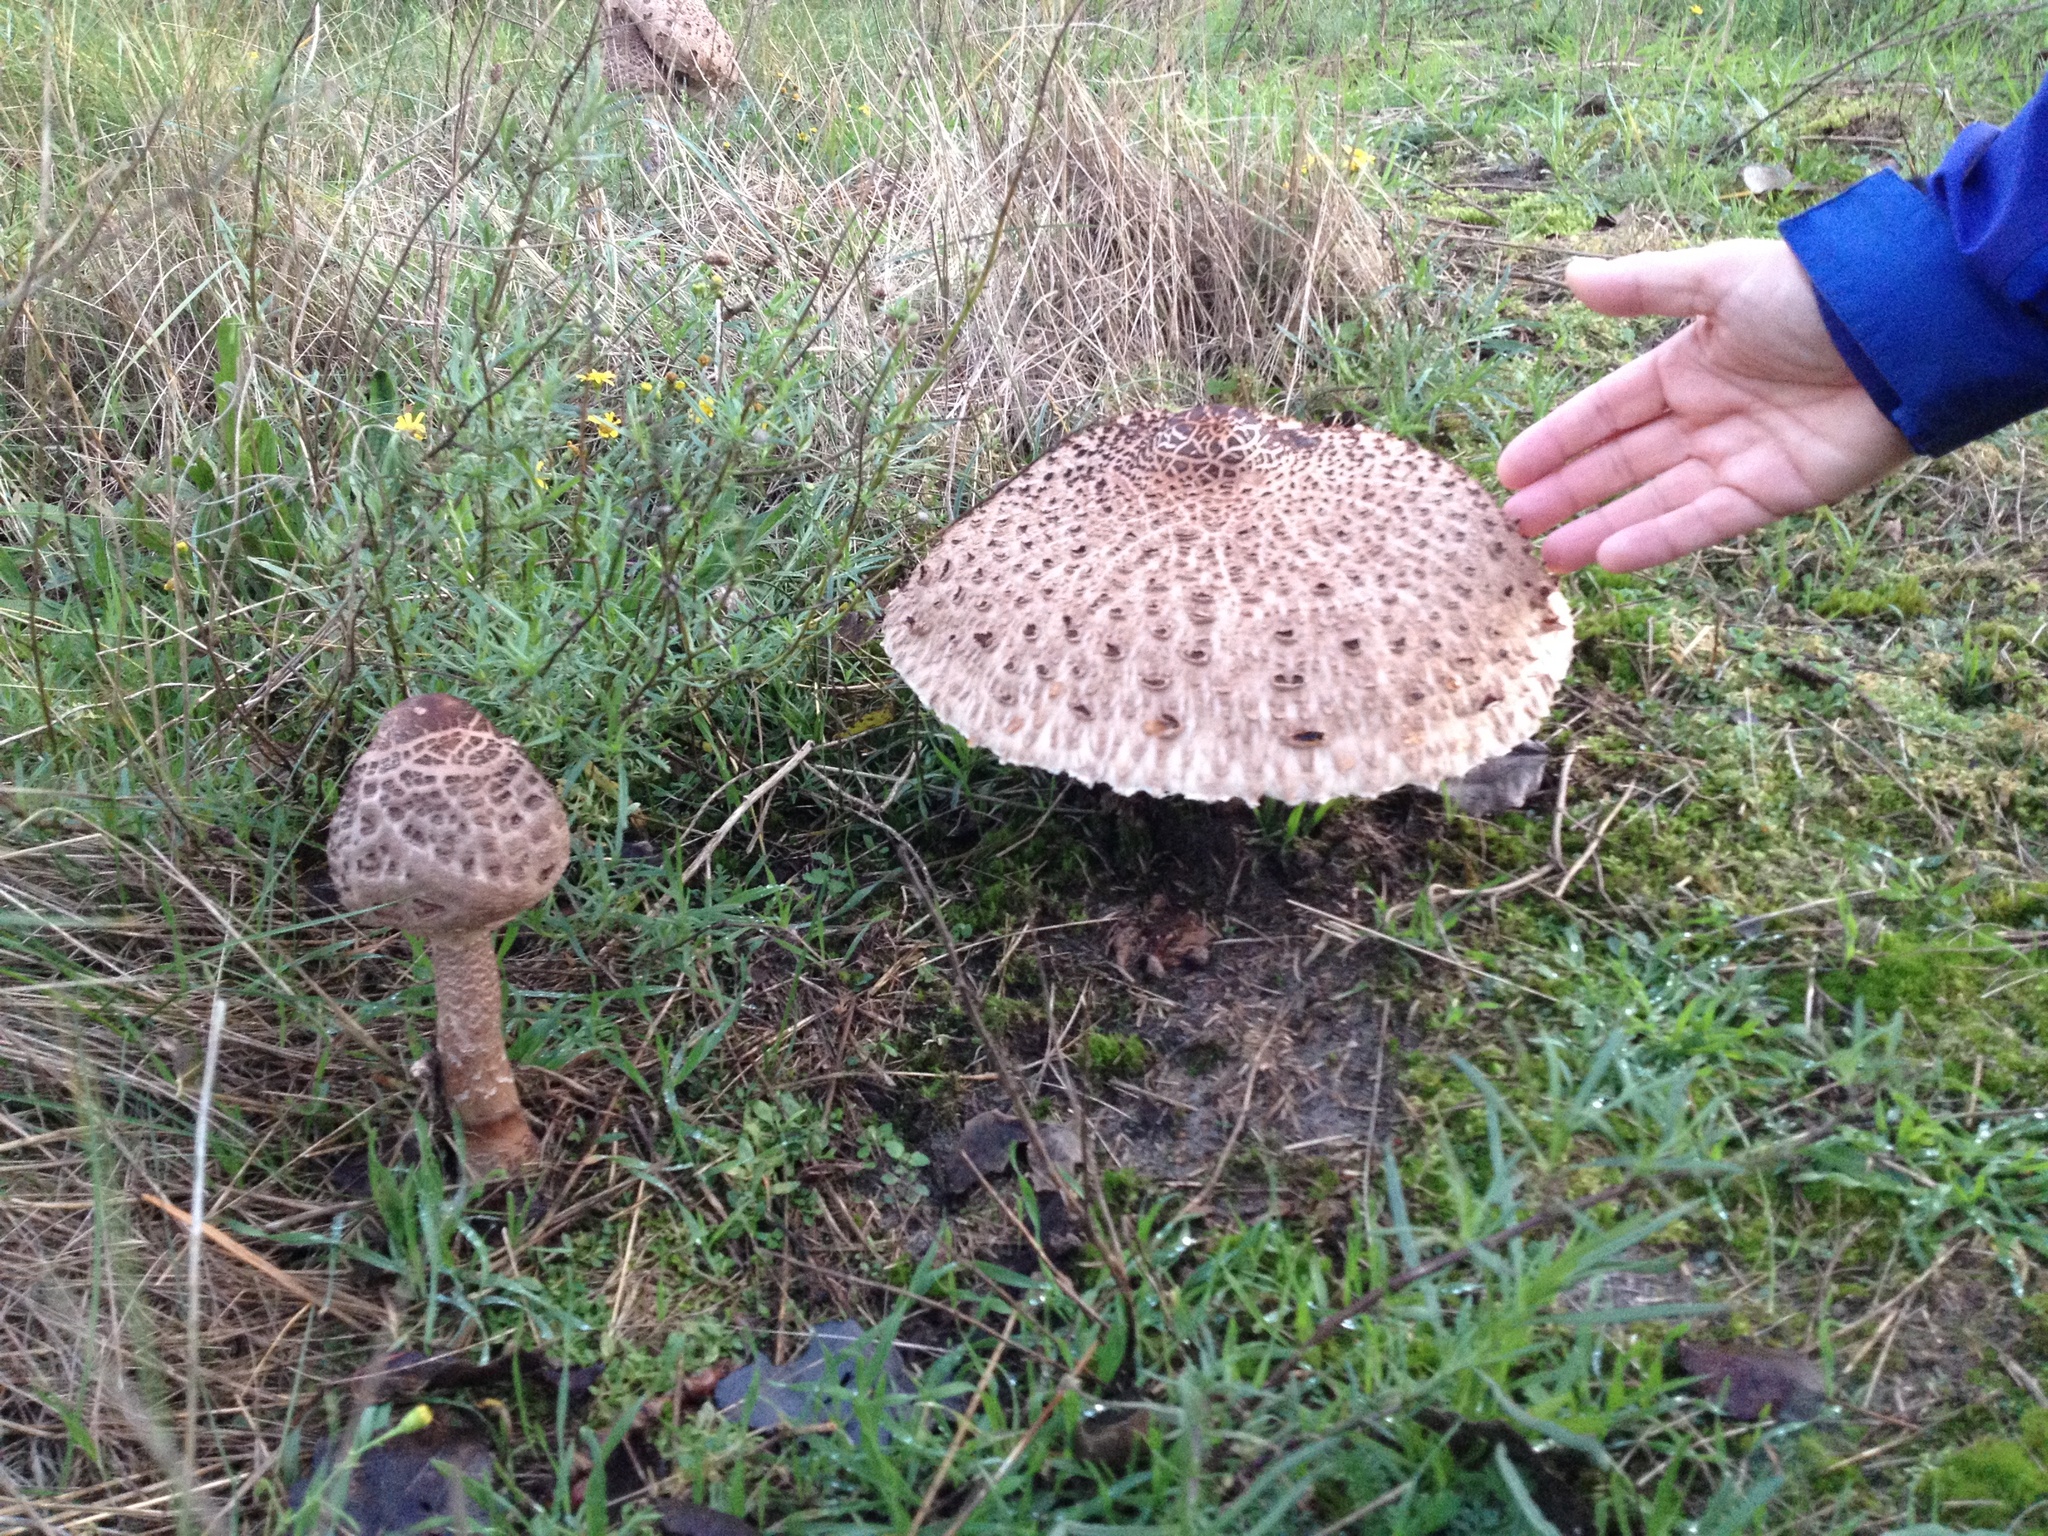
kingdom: Fungi
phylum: Basidiomycota
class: Agaricomycetes
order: Agaricales
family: Agaricaceae
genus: Macrolepiota
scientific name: Macrolepiota procera
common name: Parasol
